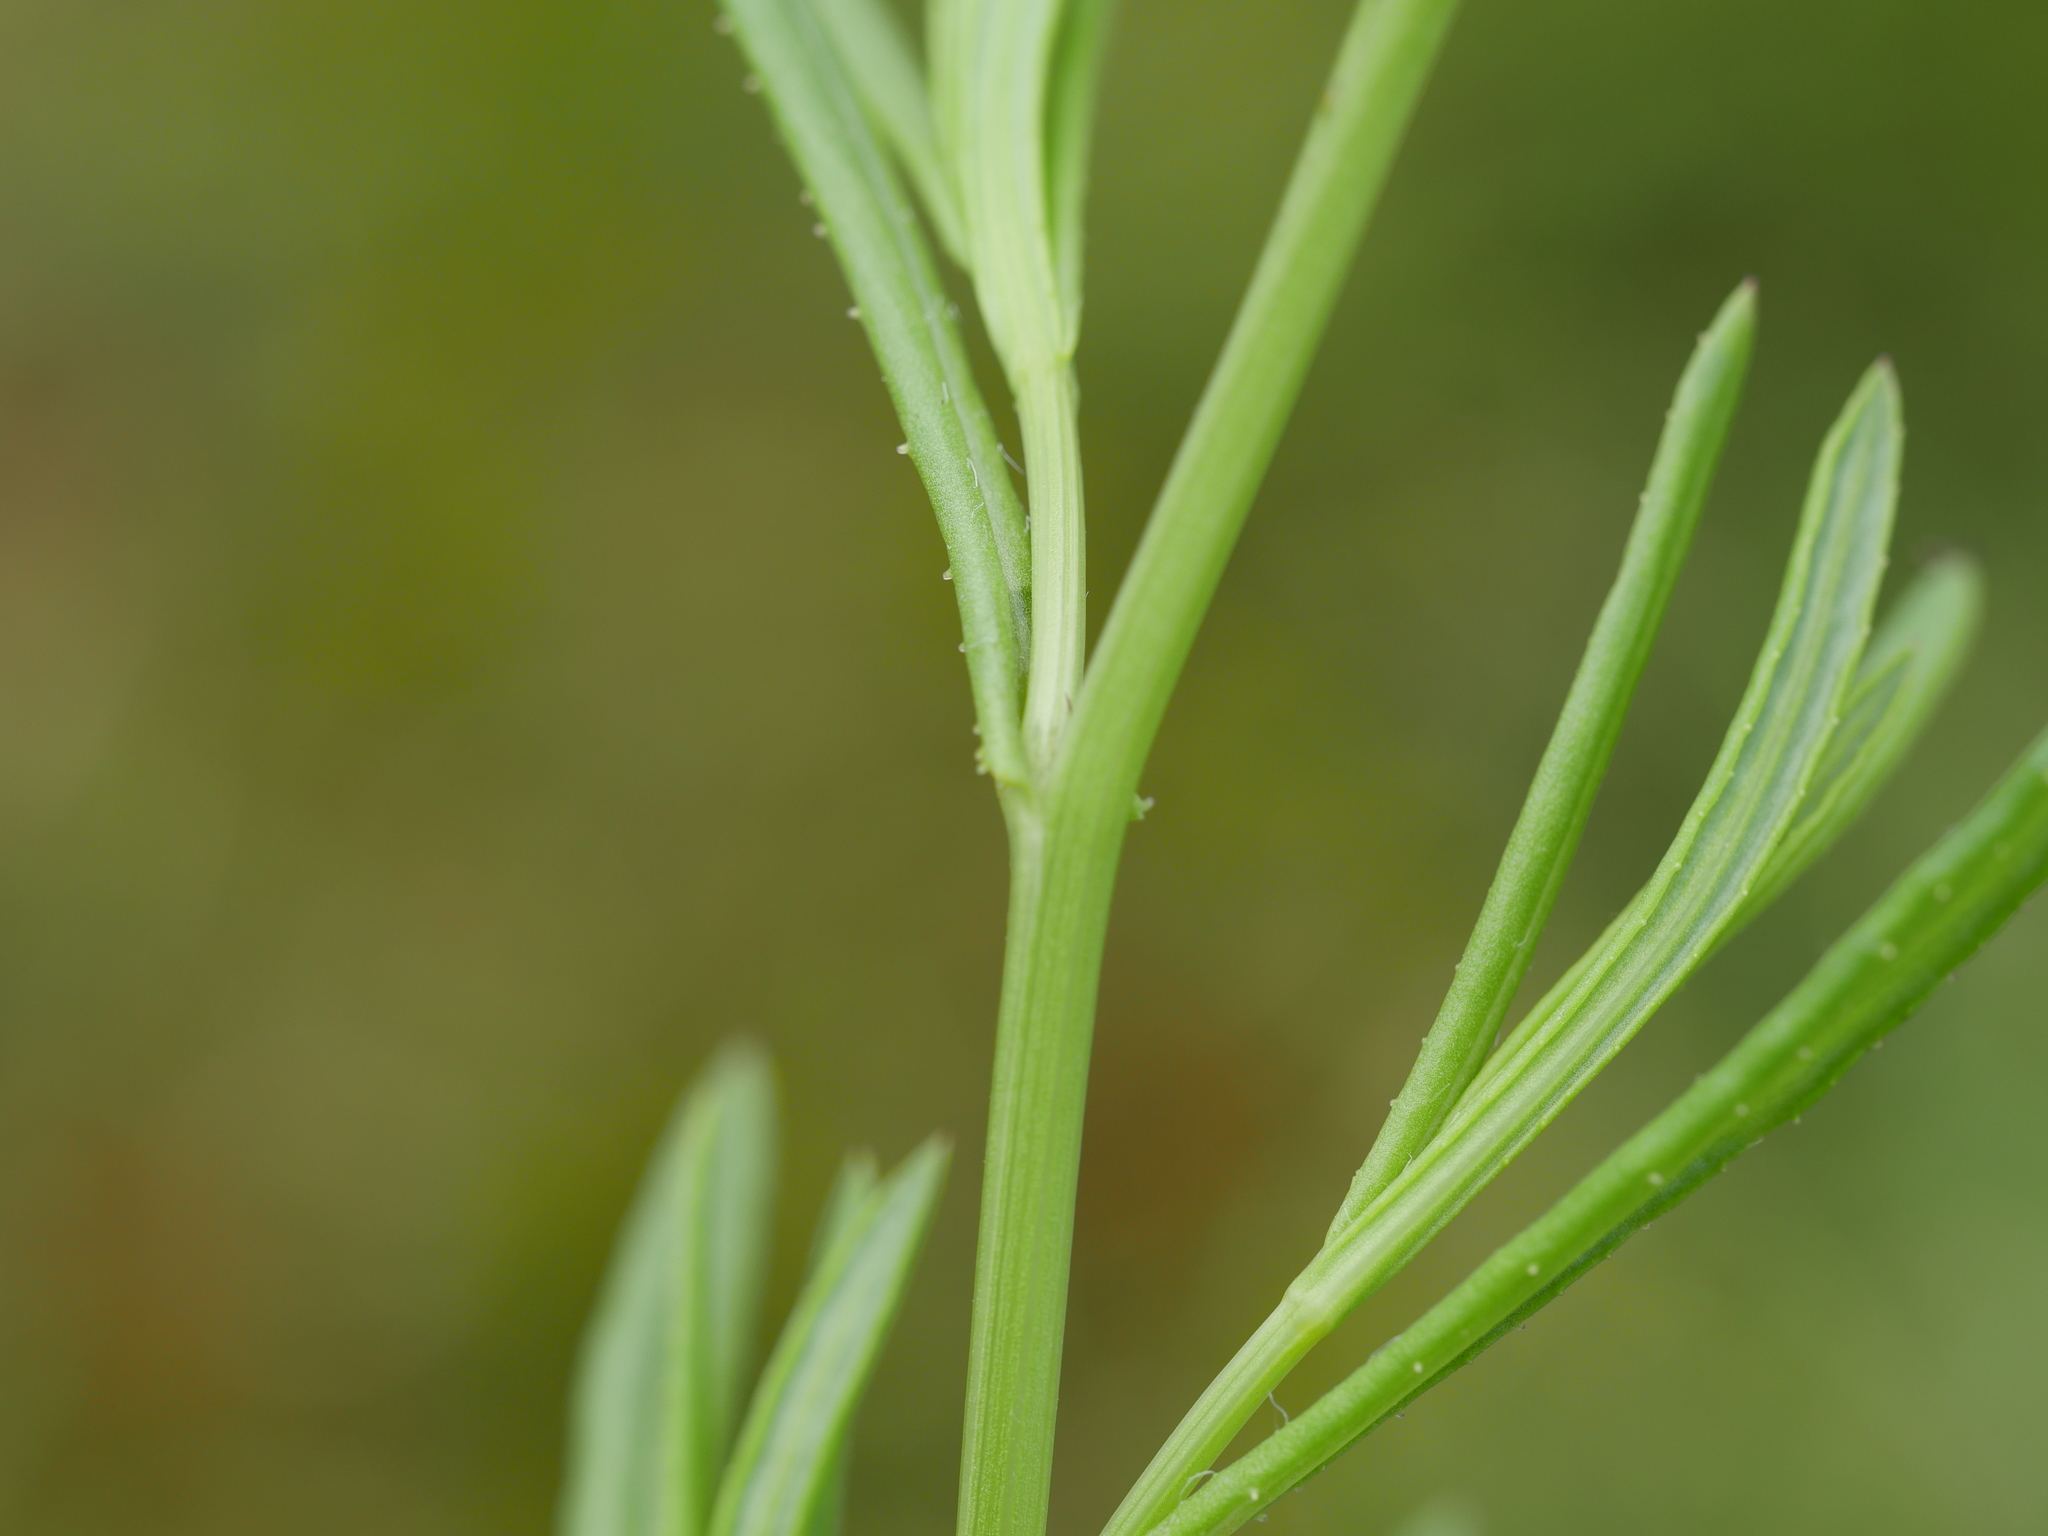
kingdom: Plantae
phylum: Tracheophyta
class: Magnoliopsida
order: Asterales
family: Asteraceae
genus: Senecio
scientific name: Senecio skirrhodon
